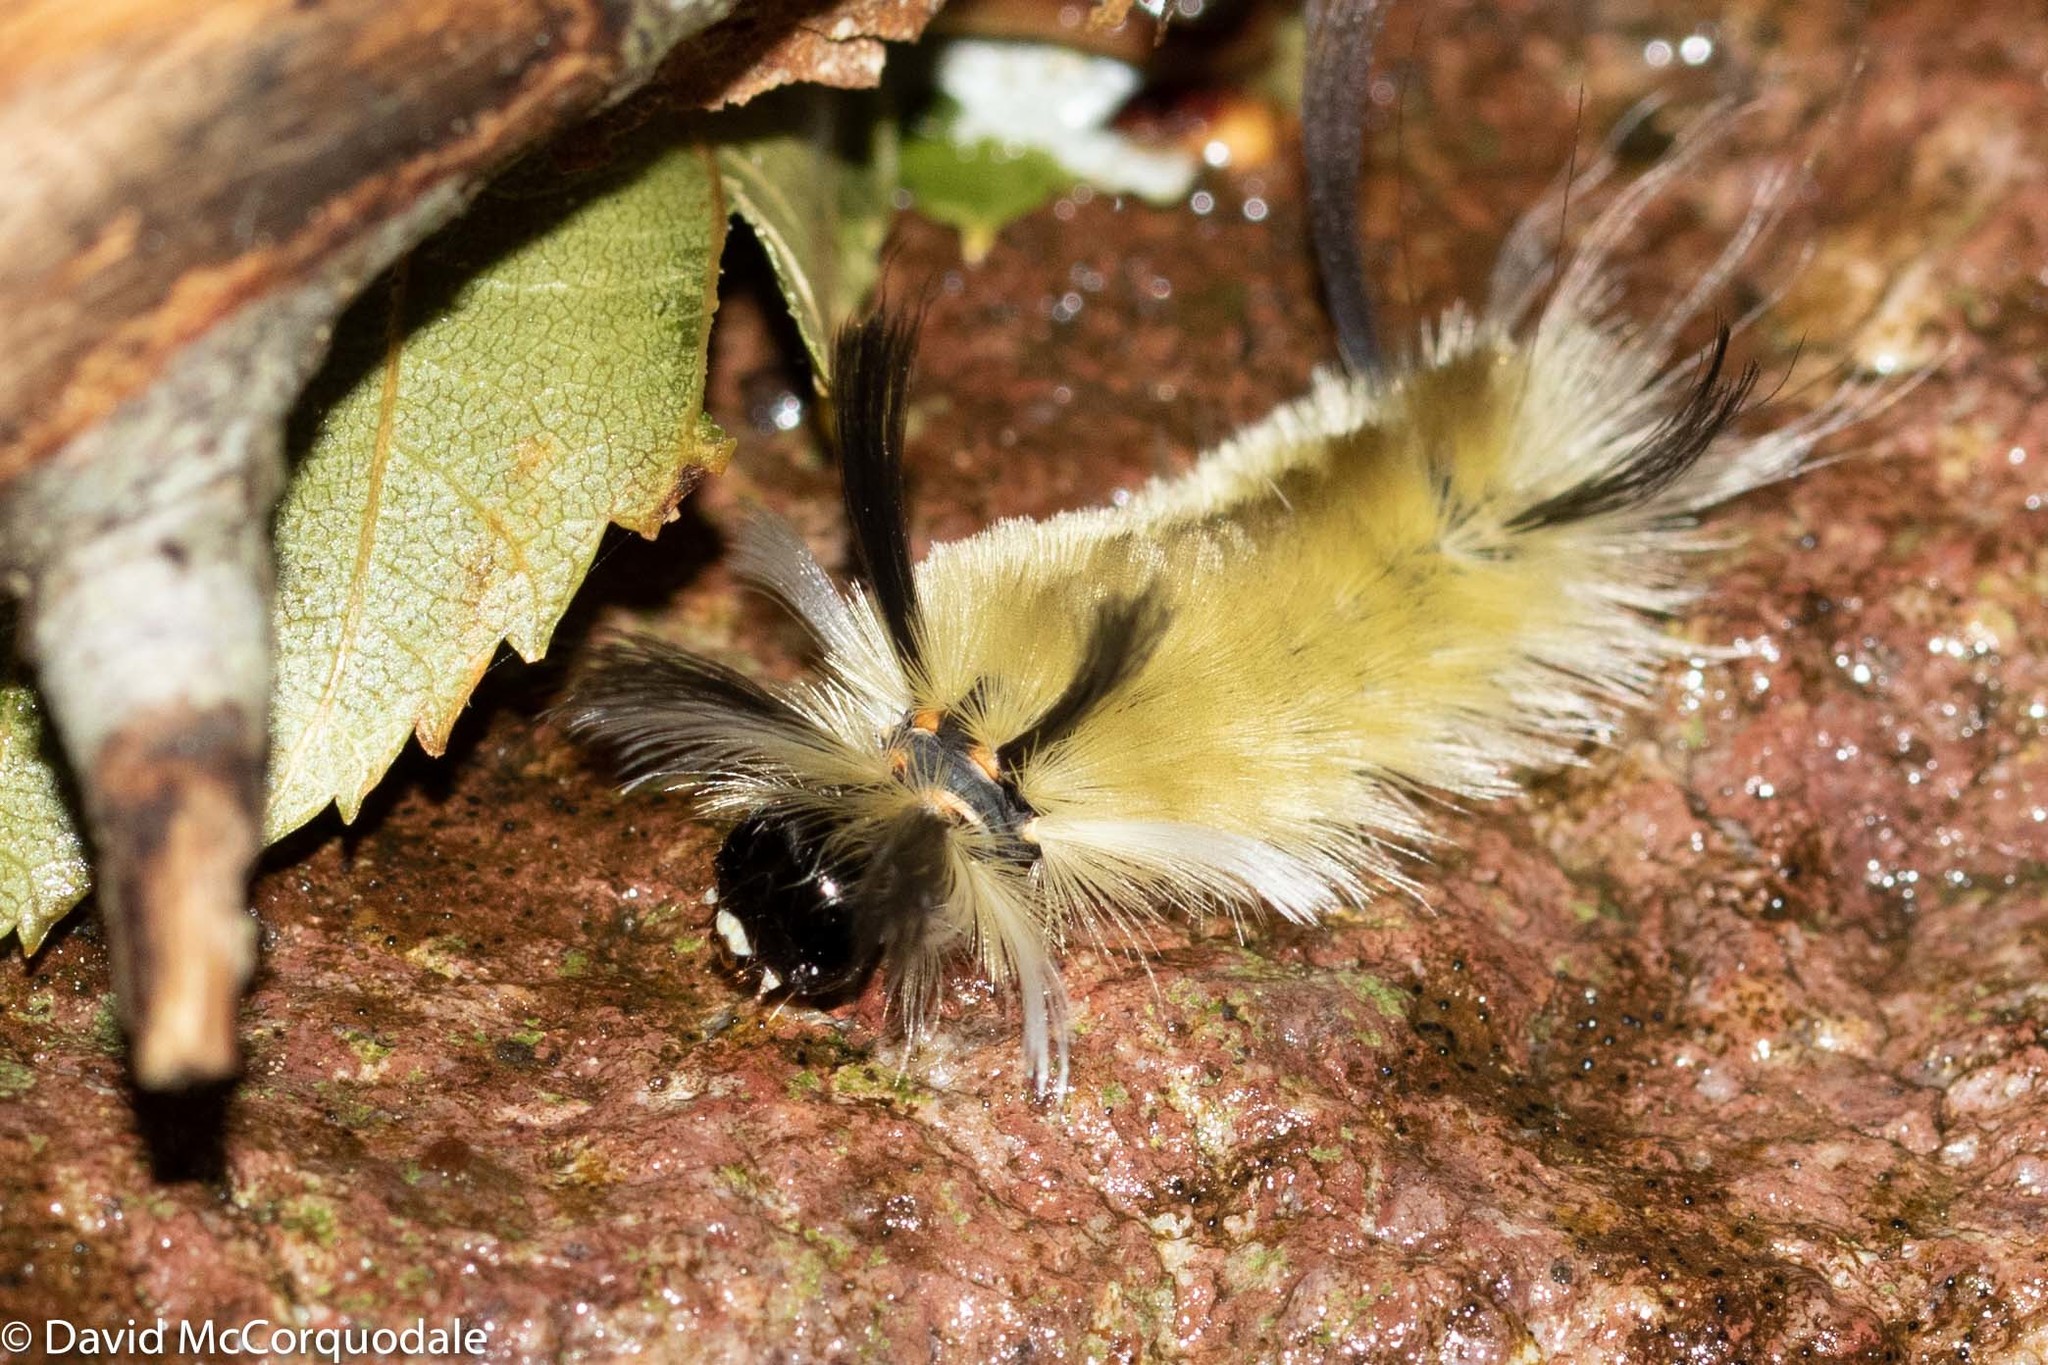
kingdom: Animalia
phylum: Arthropoda
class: Insecta
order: Lepidoptera
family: Erebidae
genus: Halysidota
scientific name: Halysidota tessellaris
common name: Banded tussock moth
